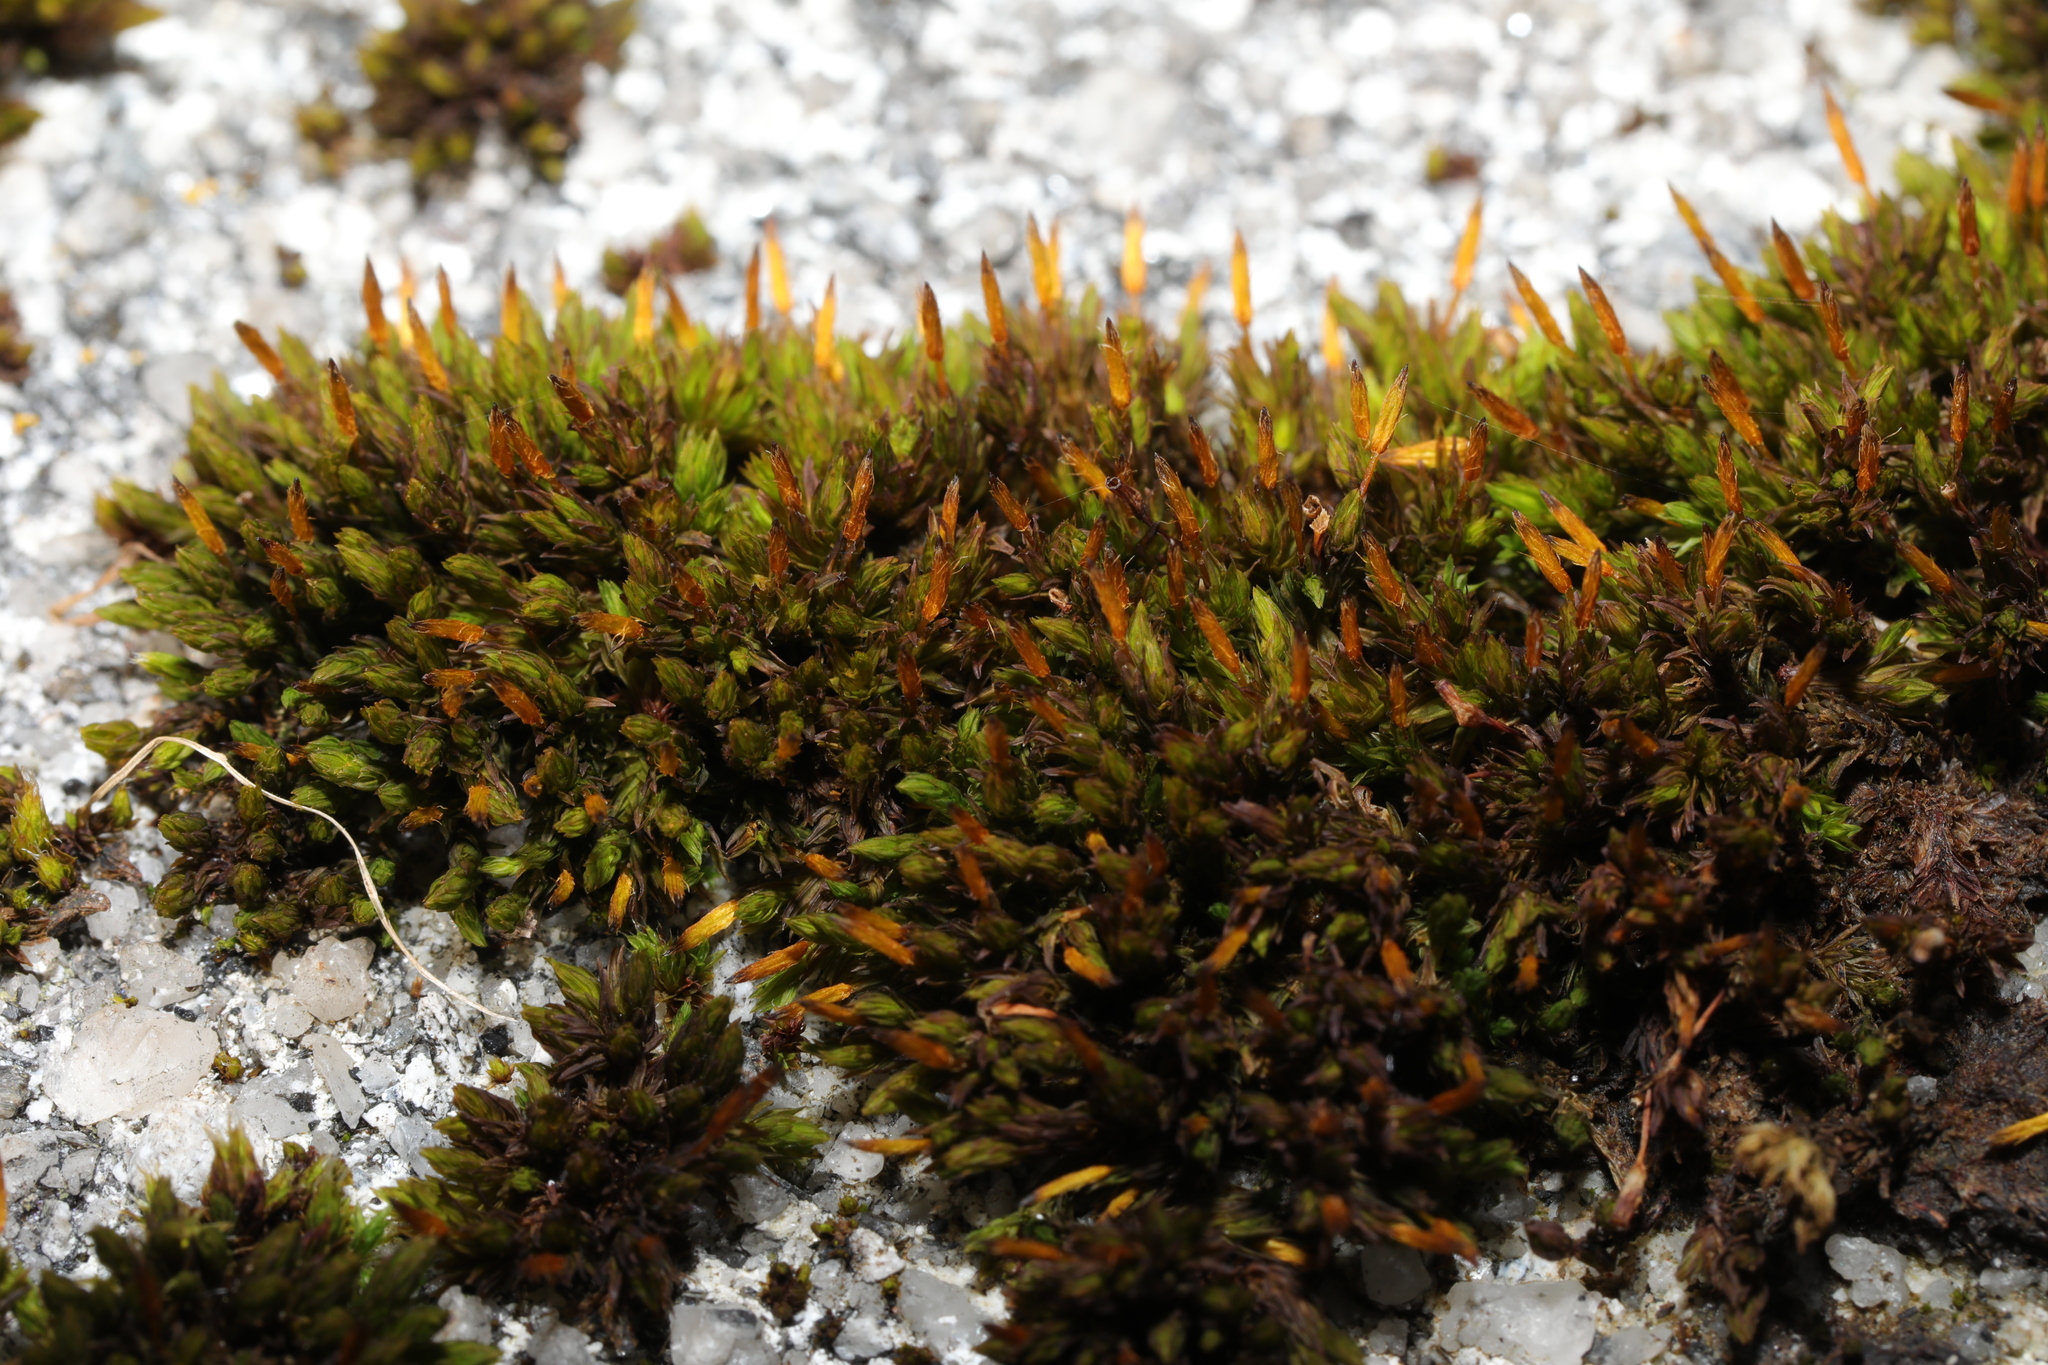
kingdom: Plantae
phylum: Bryophyta
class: Bryopsida
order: Orthotrichales
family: Orthotrichaceae
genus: Orthotrichum
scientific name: Orthotrichum anomalum
